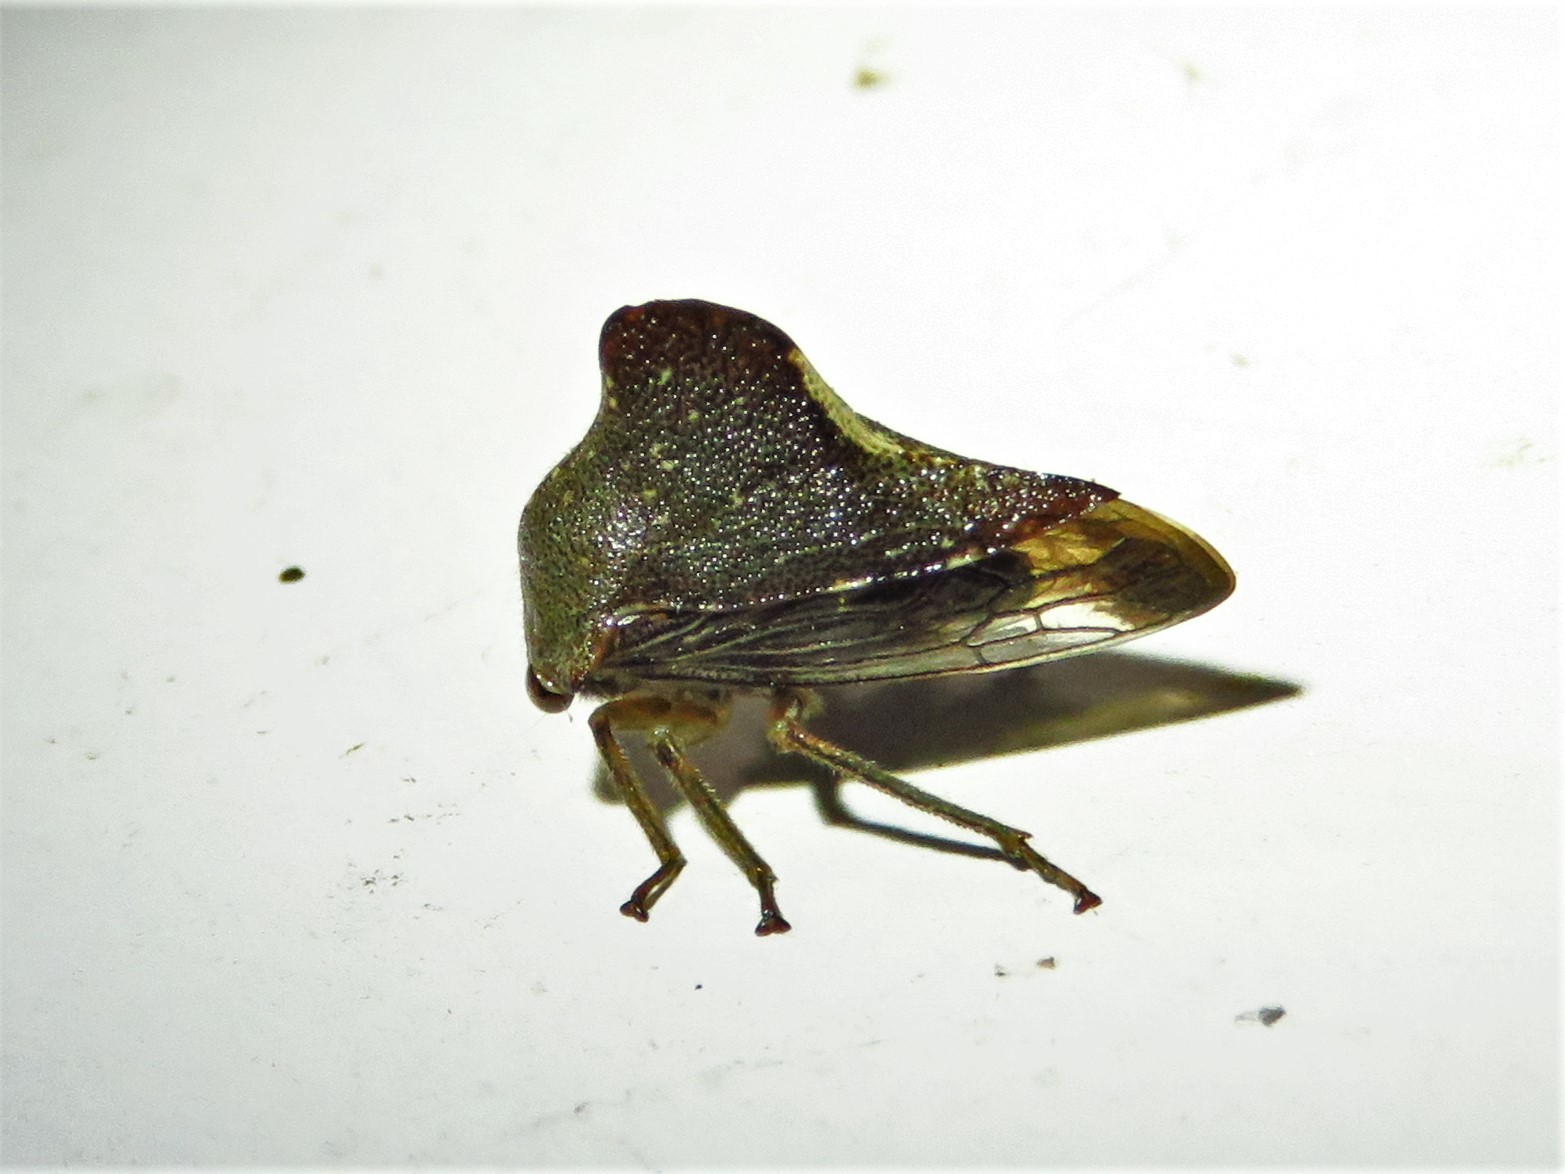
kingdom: Animalia
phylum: Arthropoda
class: Insecta
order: Hemiptera
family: Membracidae
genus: Telamona
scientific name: Telamona monticola
